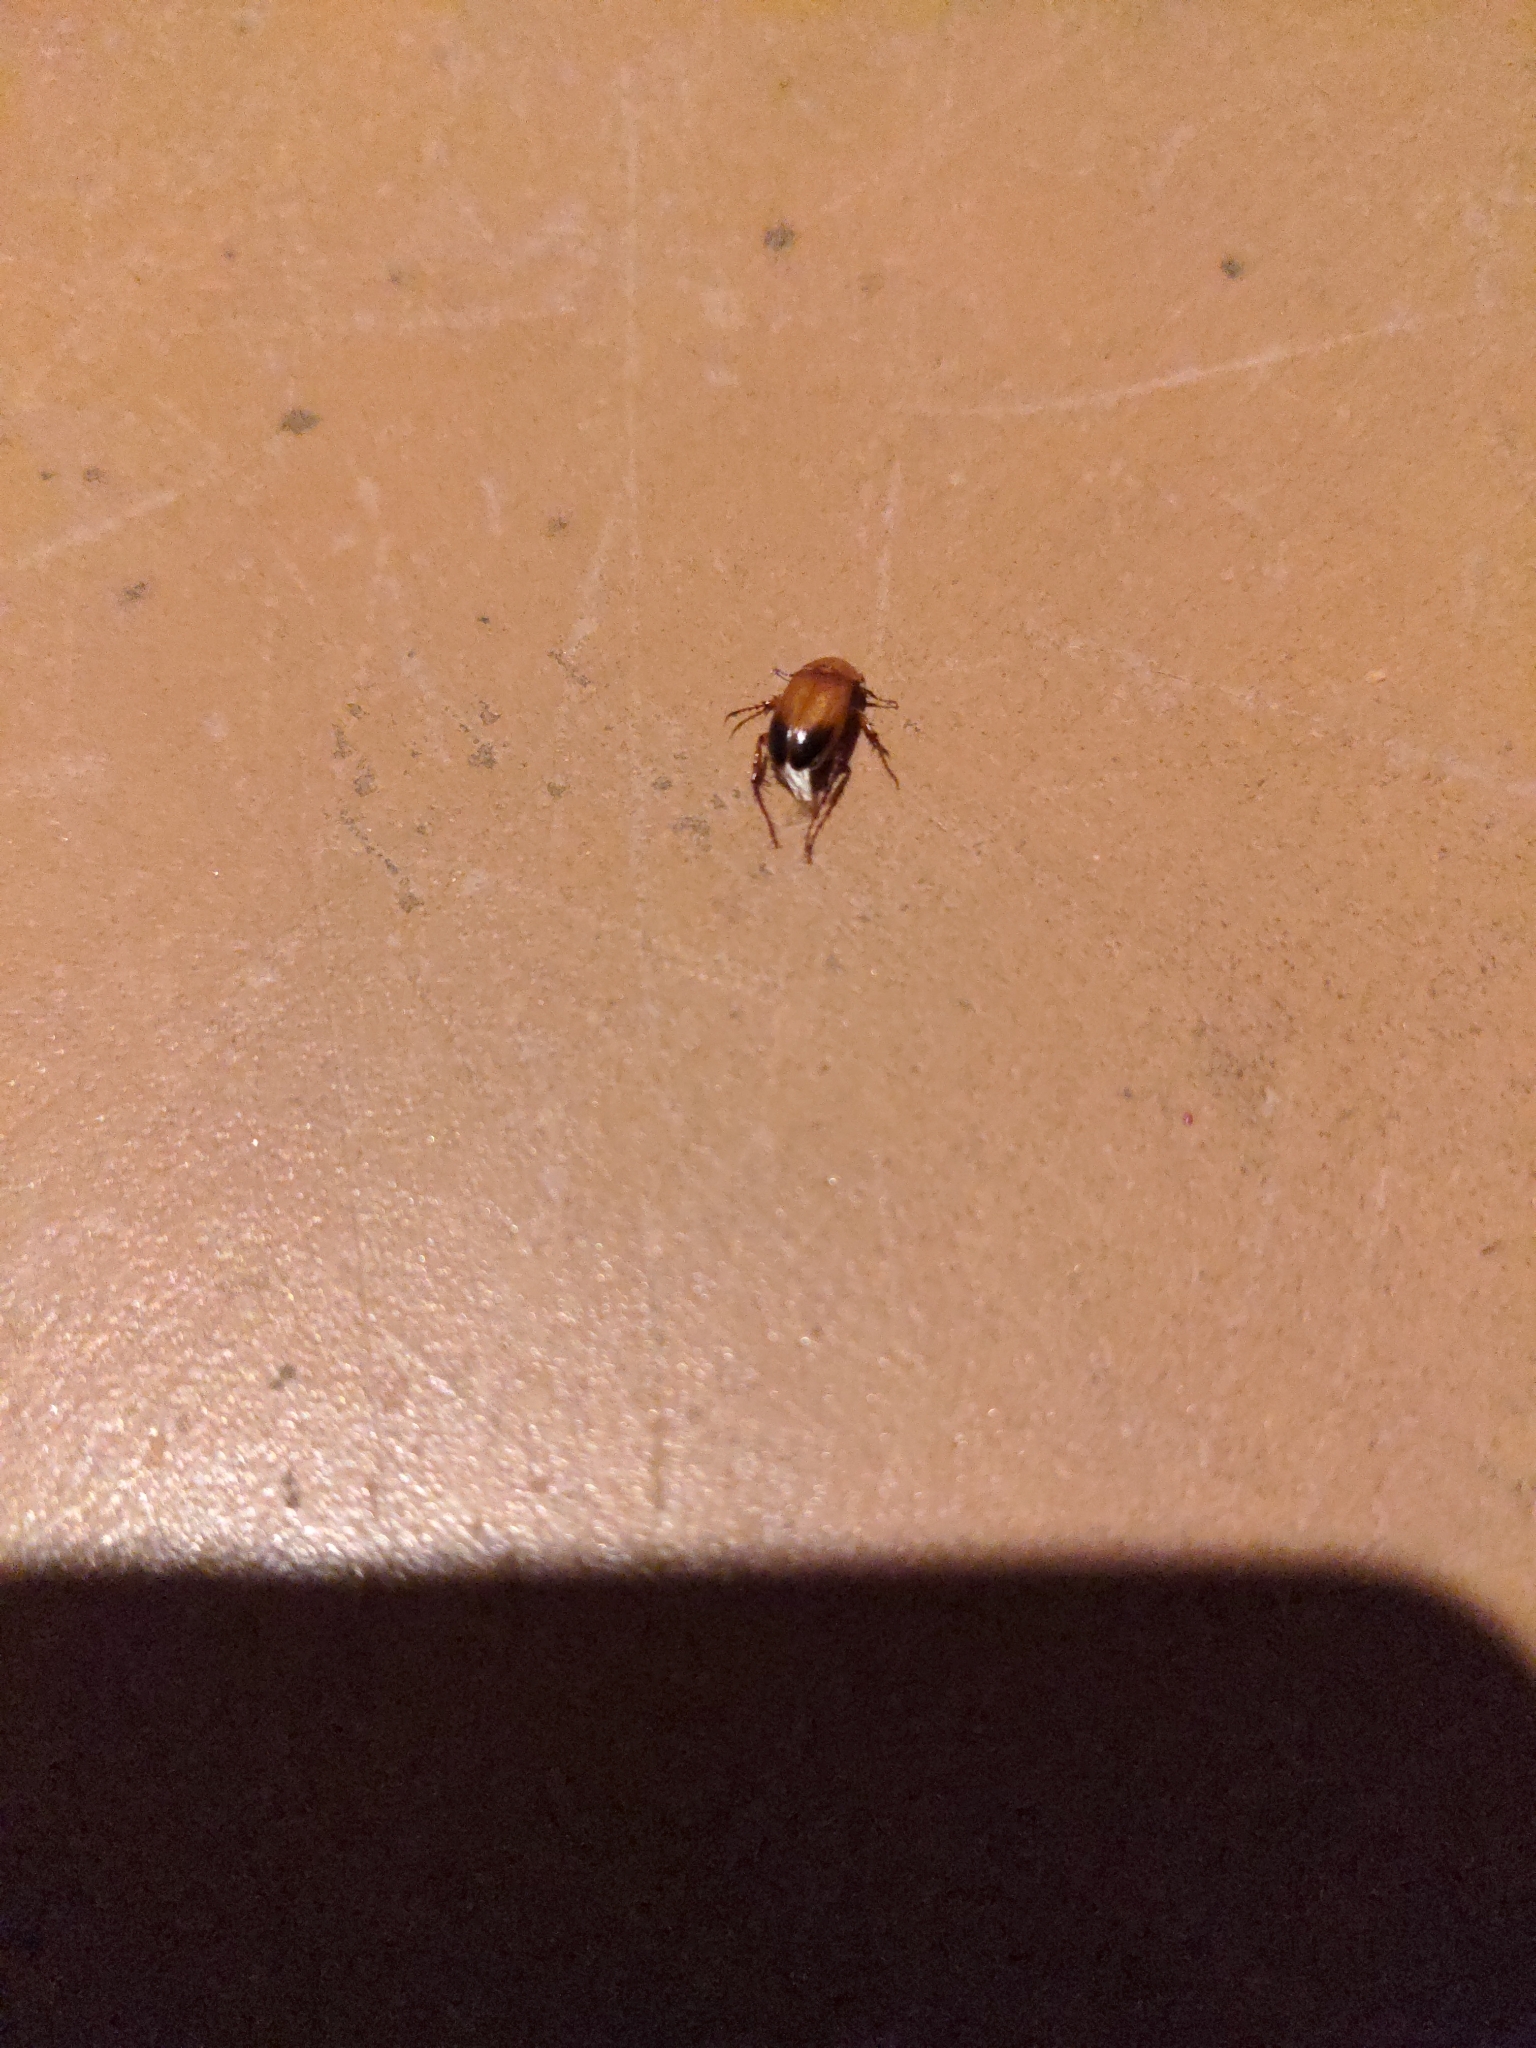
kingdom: Animalia
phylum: Arthropoda
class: Insecta
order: Coleoptera
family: Scarabaeidae
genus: Phyllotocus
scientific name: Phyllotocus macleayi
